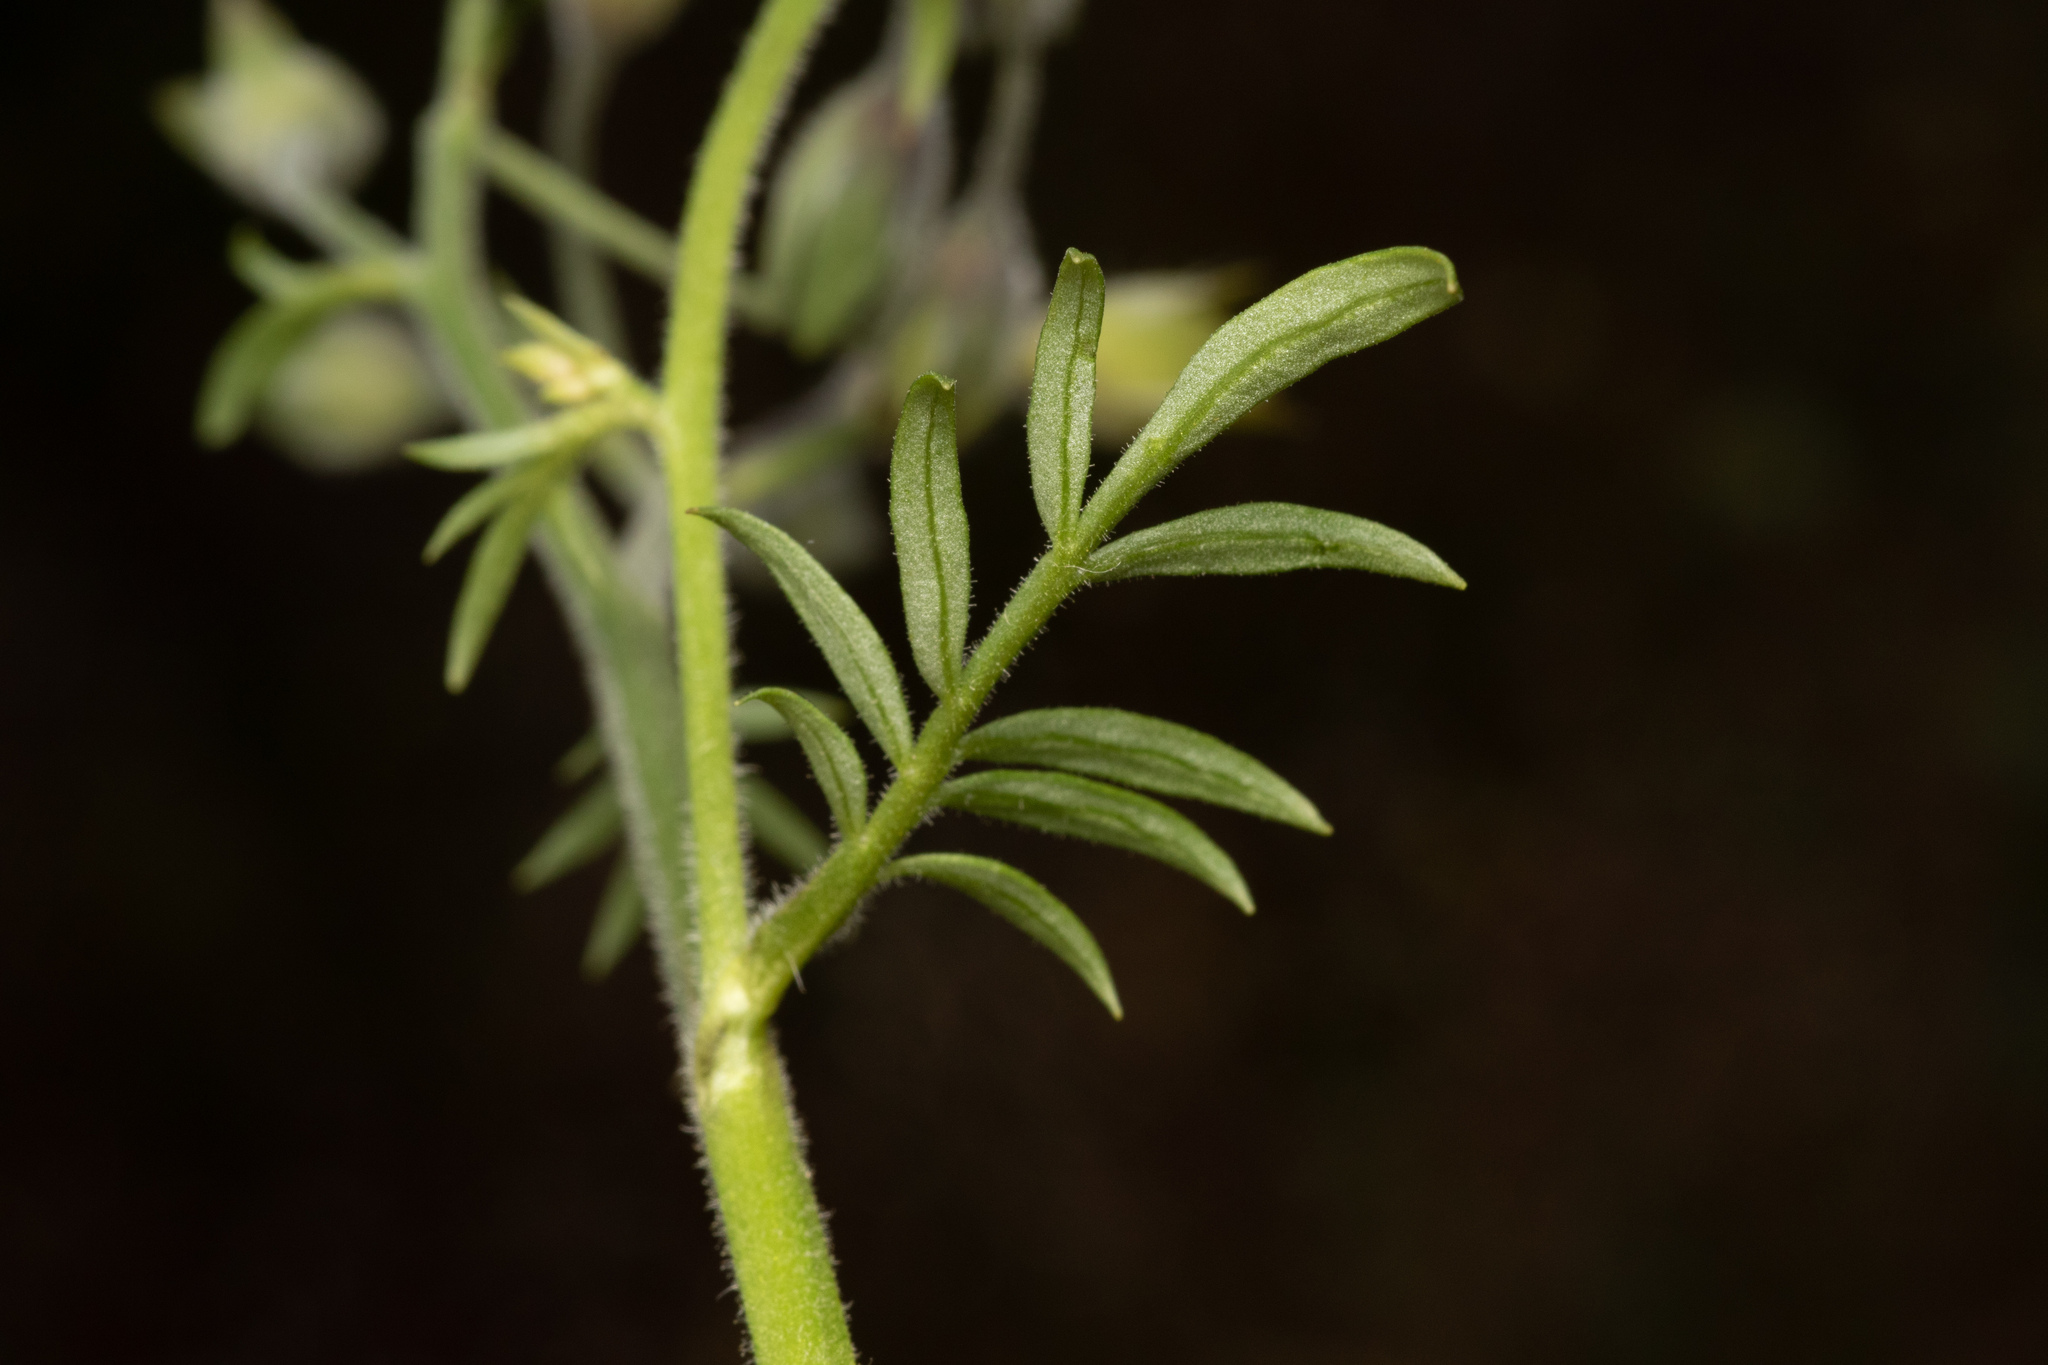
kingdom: Plantae
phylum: Tracheophyta
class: Magnoliopsida
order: Ericales
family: Polemoniaceae
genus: Polemonium
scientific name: Polemonium acutiflorum
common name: Tall jacob's-ladder
